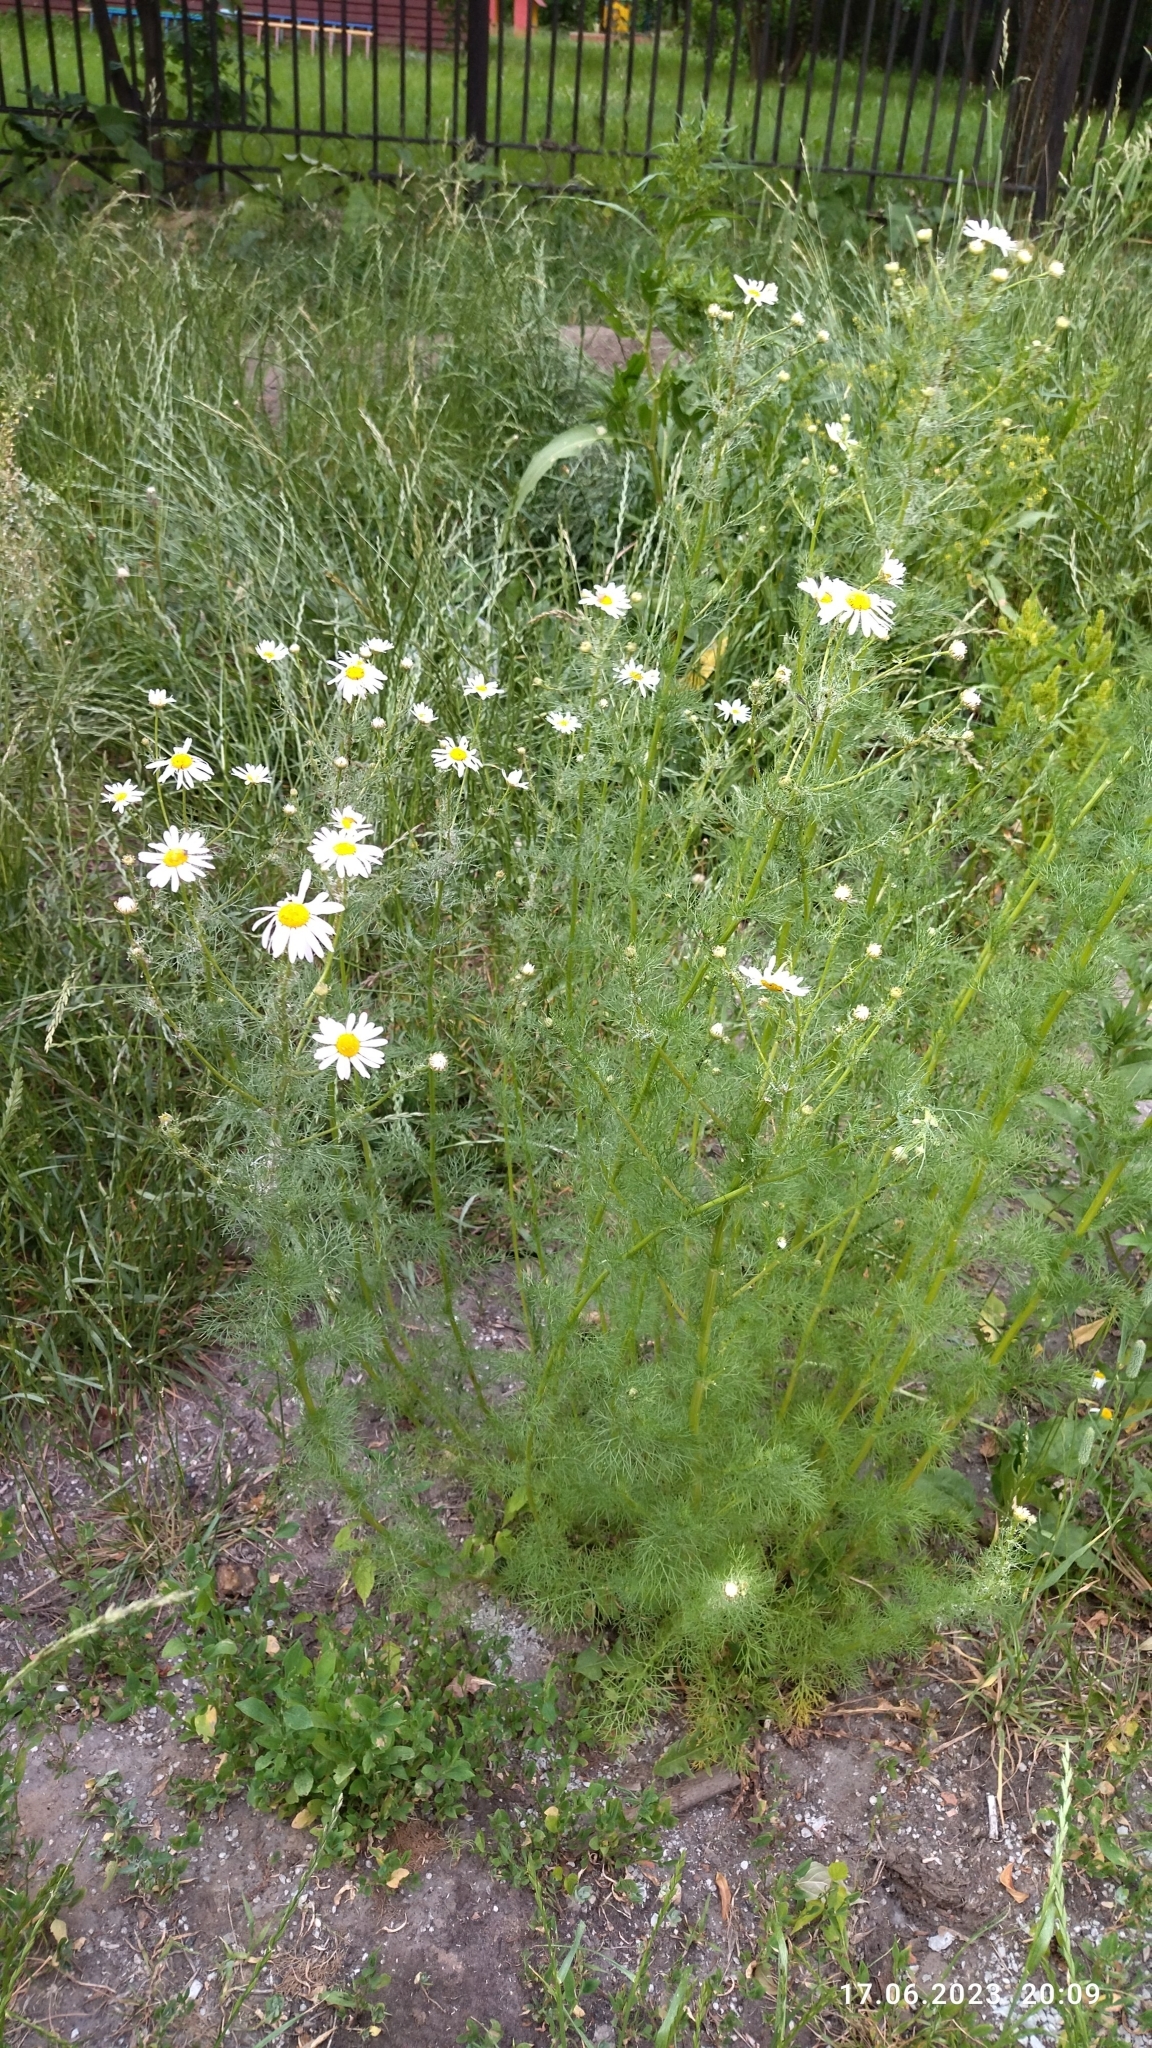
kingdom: Plantae
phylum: Tracheophyta
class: Magnoliopsida
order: Asterales
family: Asteraceae
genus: Tripleurospermum
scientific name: Tripleurospermum inodorum
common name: Scentless mayweed
